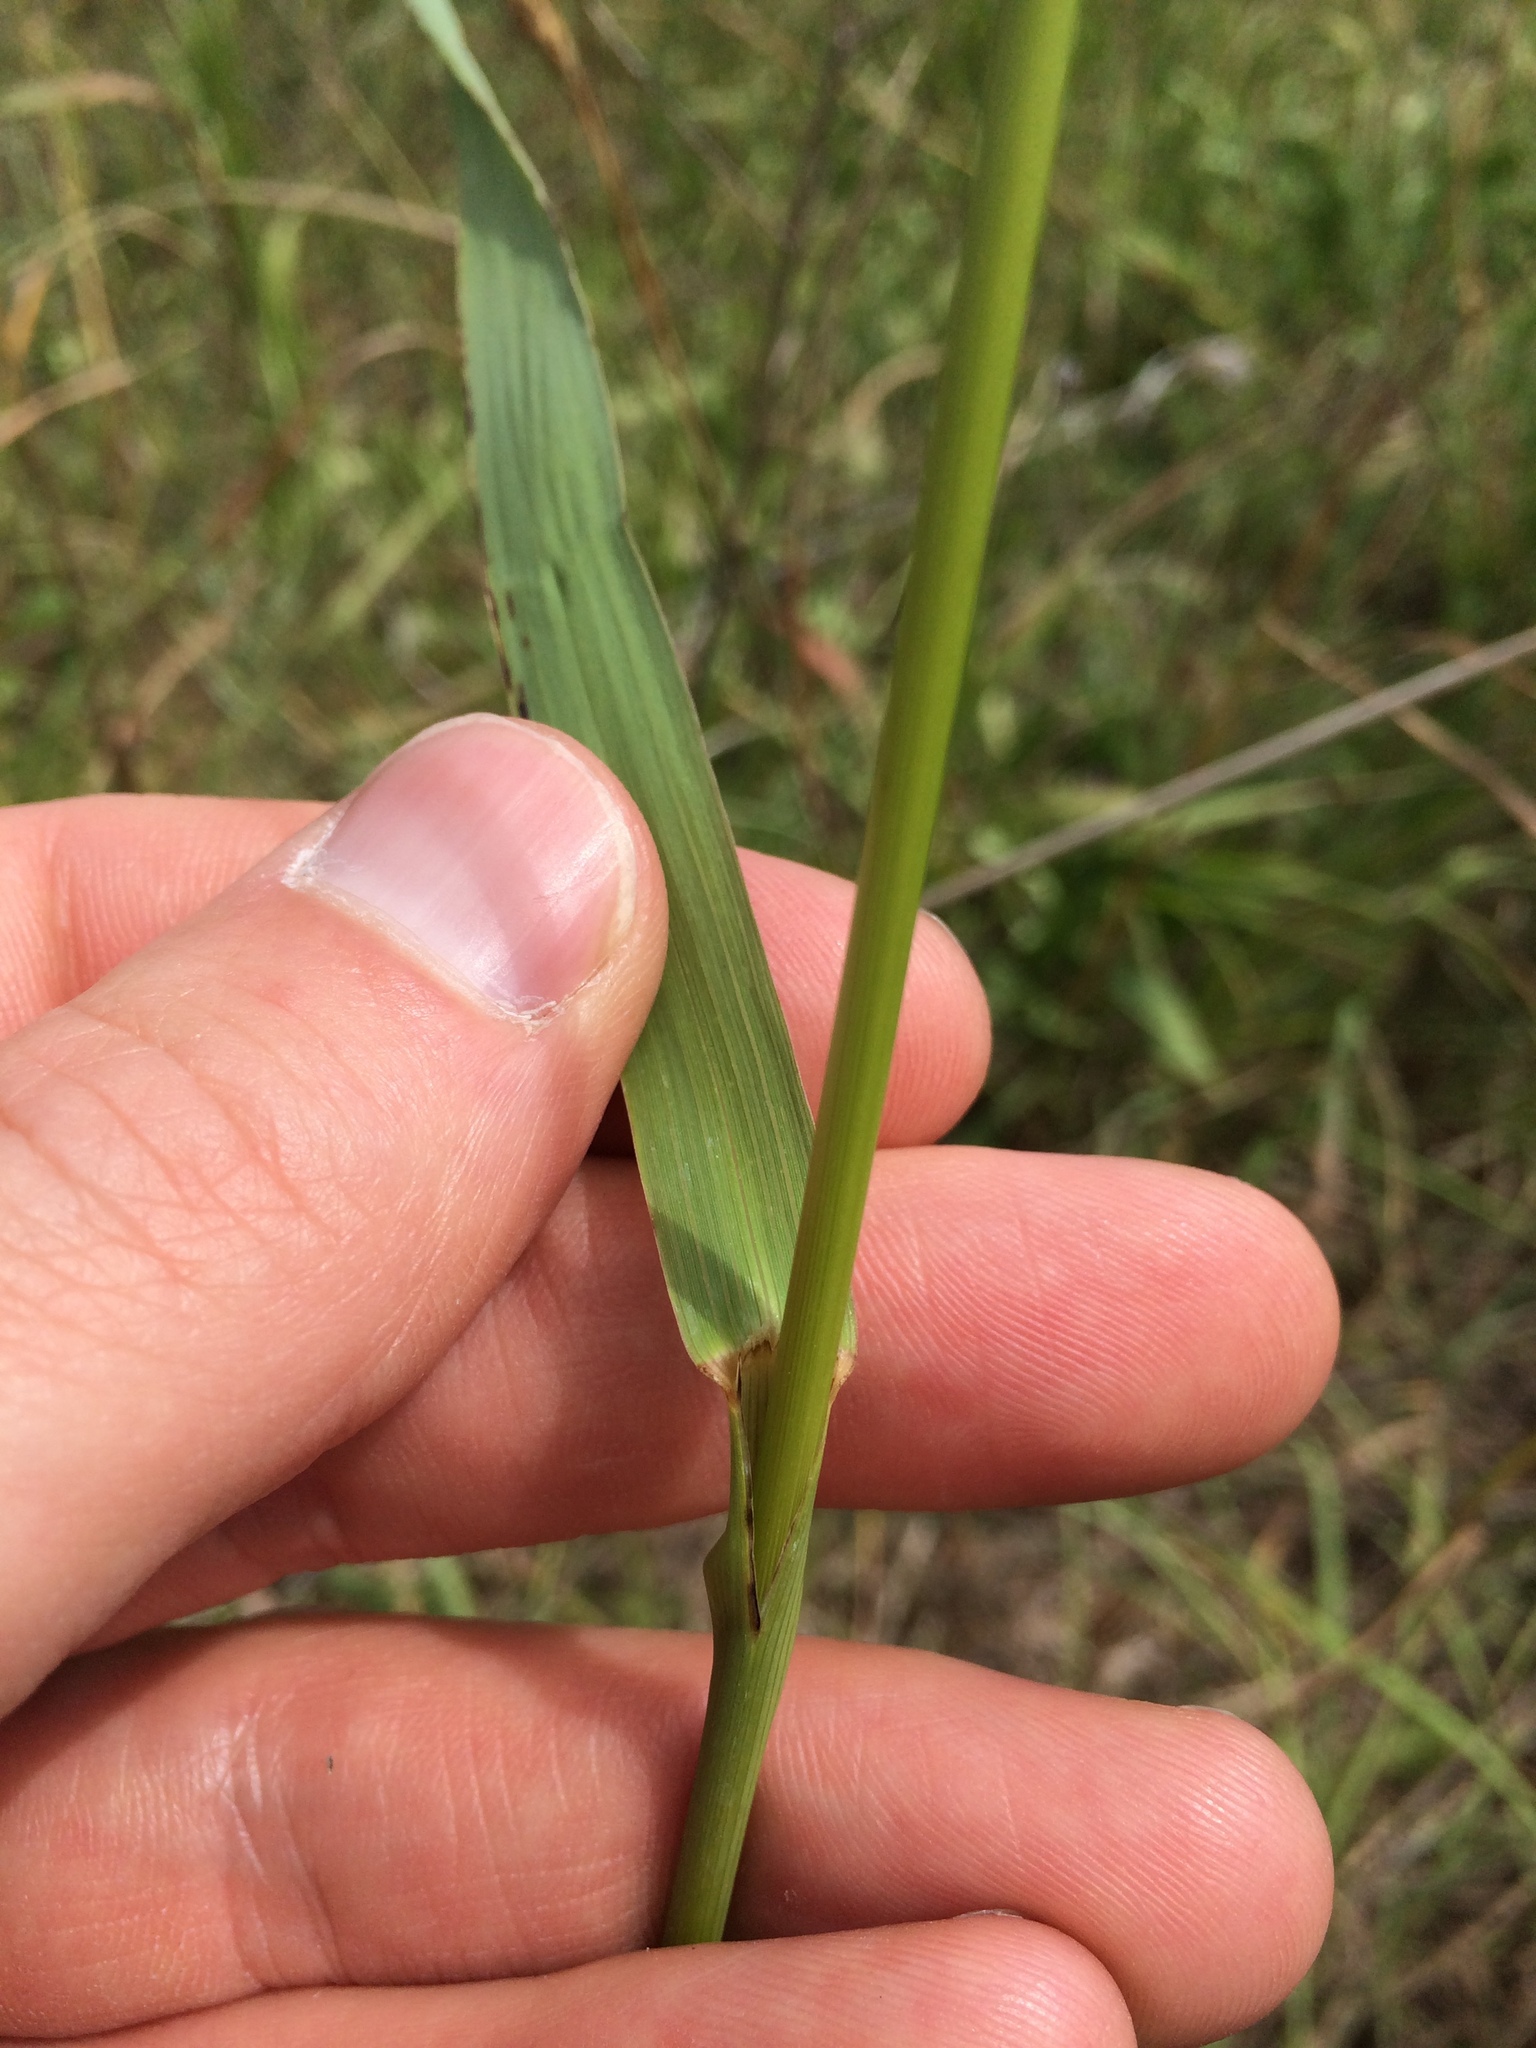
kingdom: Plantae
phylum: Tracheophyta
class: Liliopsida
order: Poales
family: Poaceae
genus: Bromus
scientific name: Bromus inermis
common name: Smooth brome
